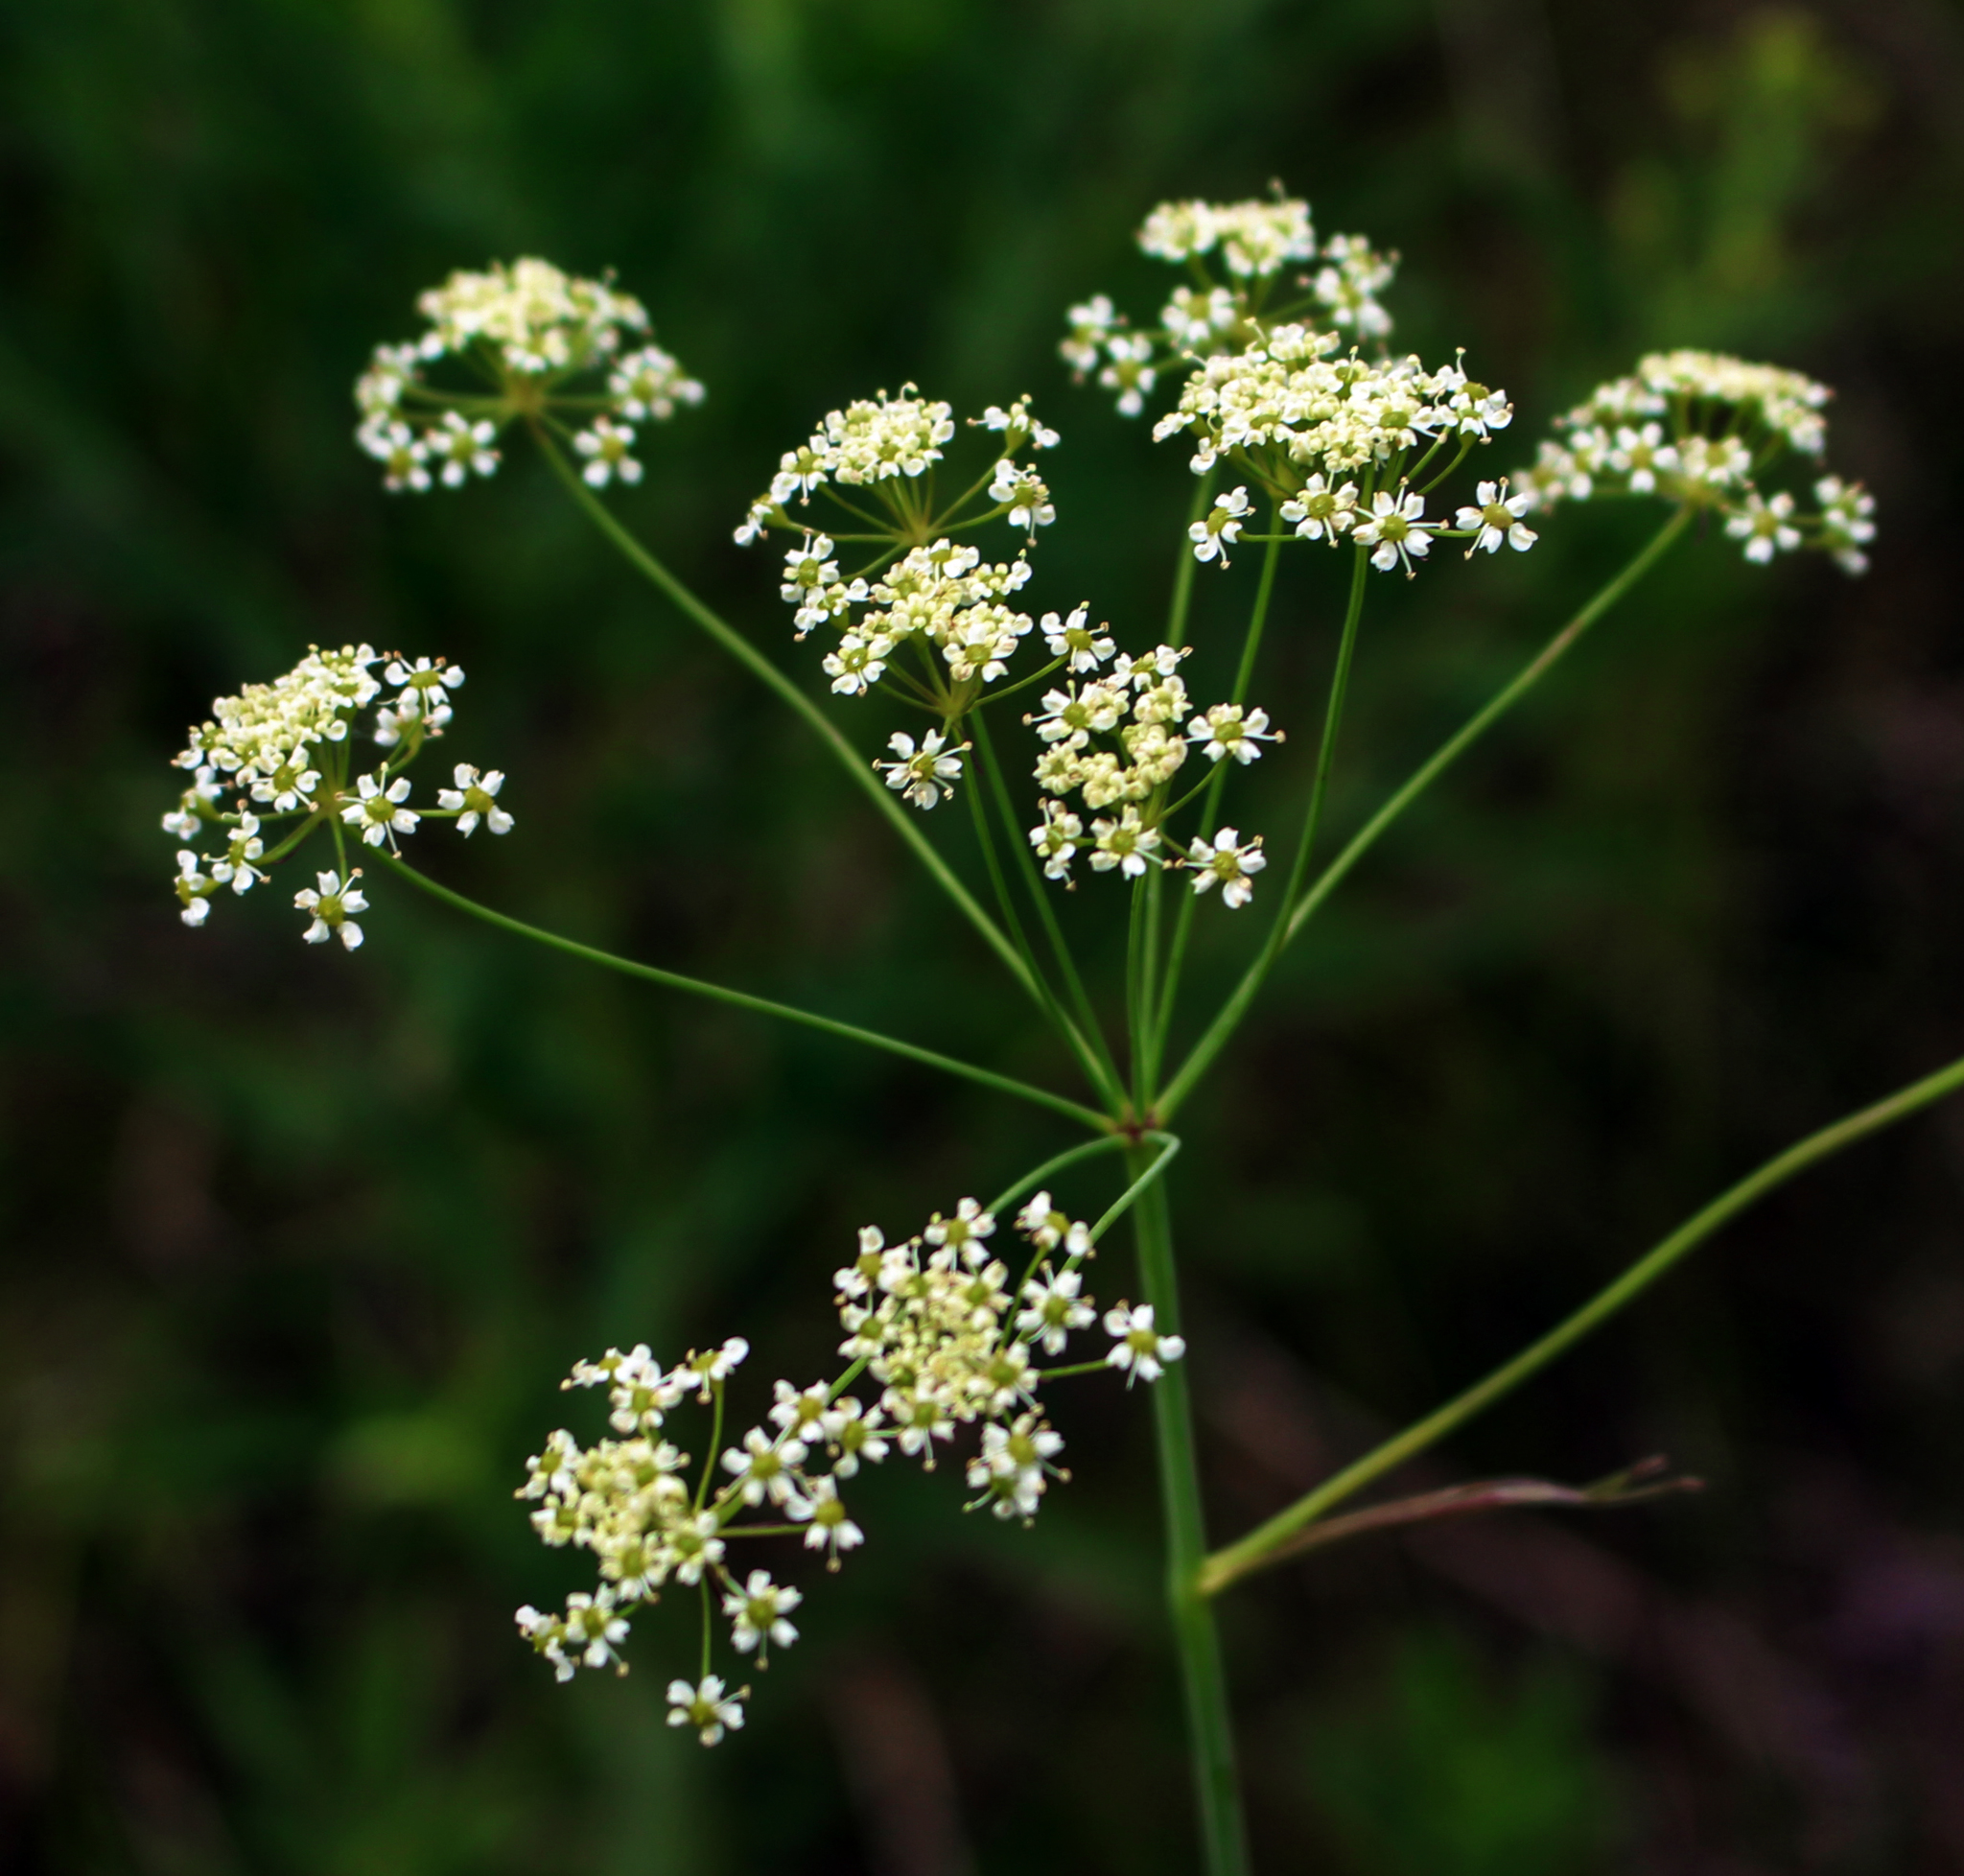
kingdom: Plantae
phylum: Tracheophyta
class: Magnoliopsida
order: Apiales
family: Apiaceae
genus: Cicuta
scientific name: Cicuta bulbifera
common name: Bulb-bearing water-hemlock
